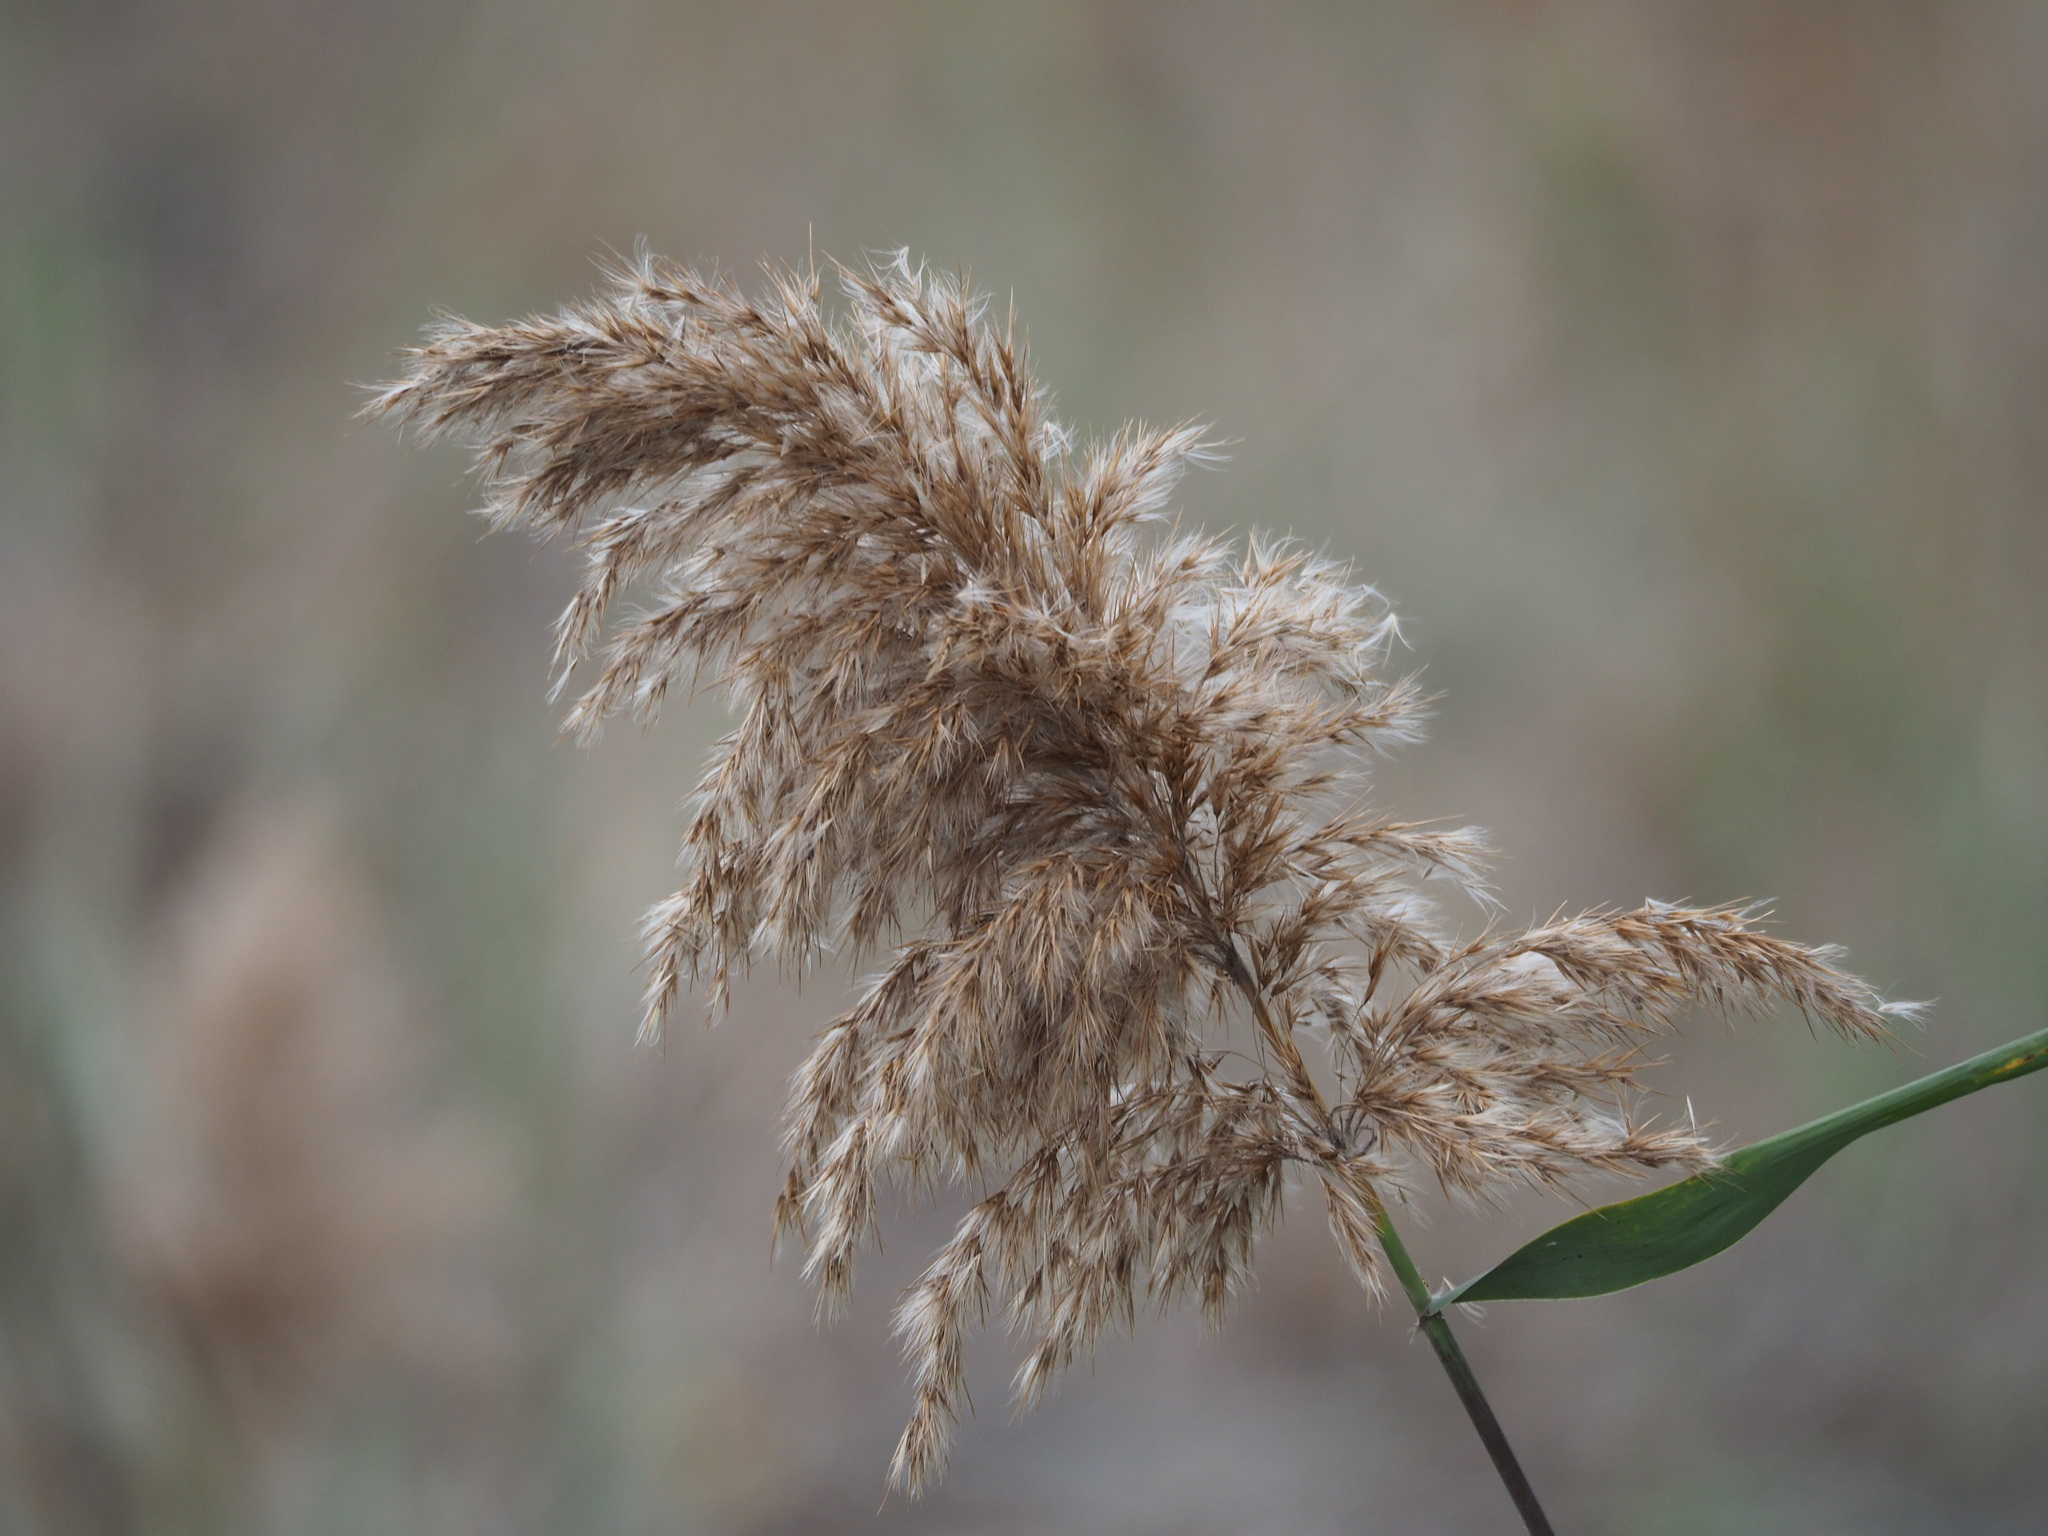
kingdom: Plantae
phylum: Tracheophyta
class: Liliopsida
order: Poales
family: Poaceae
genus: Phragmites
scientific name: Phragmites australis
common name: Common reed
